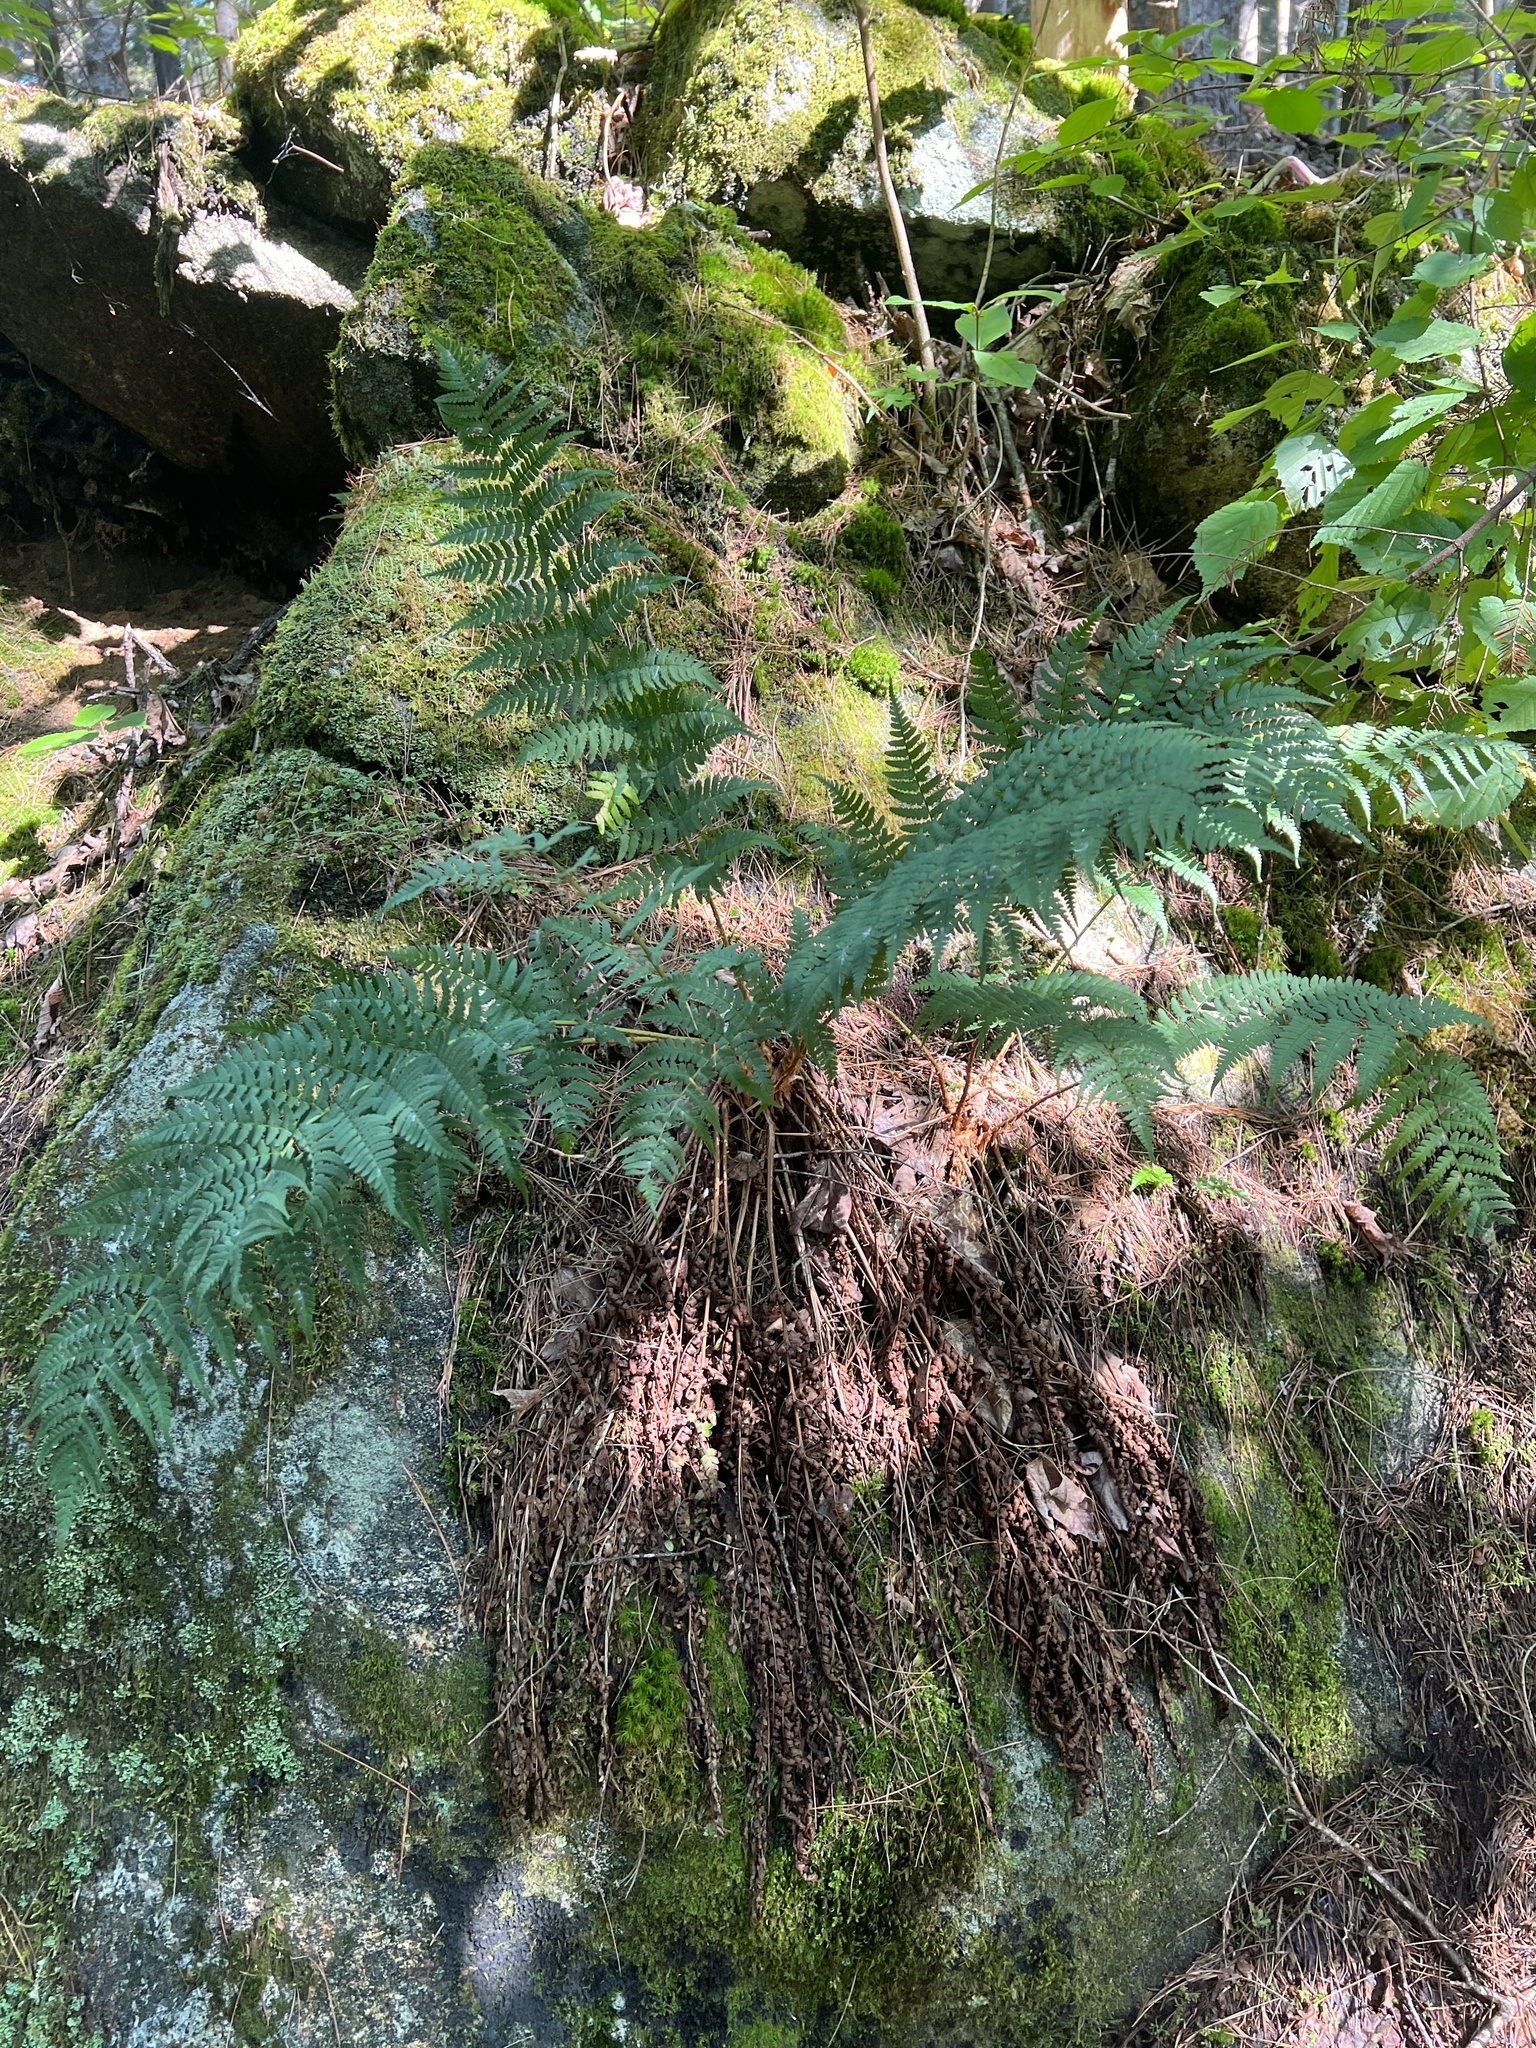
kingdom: Plantae
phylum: Tracheophyta
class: Polypodiopsida
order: Polypodiales
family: Dryopteridaceae
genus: Dryopteris
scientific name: Dryopteris marginalis
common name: Marginal wood fern
